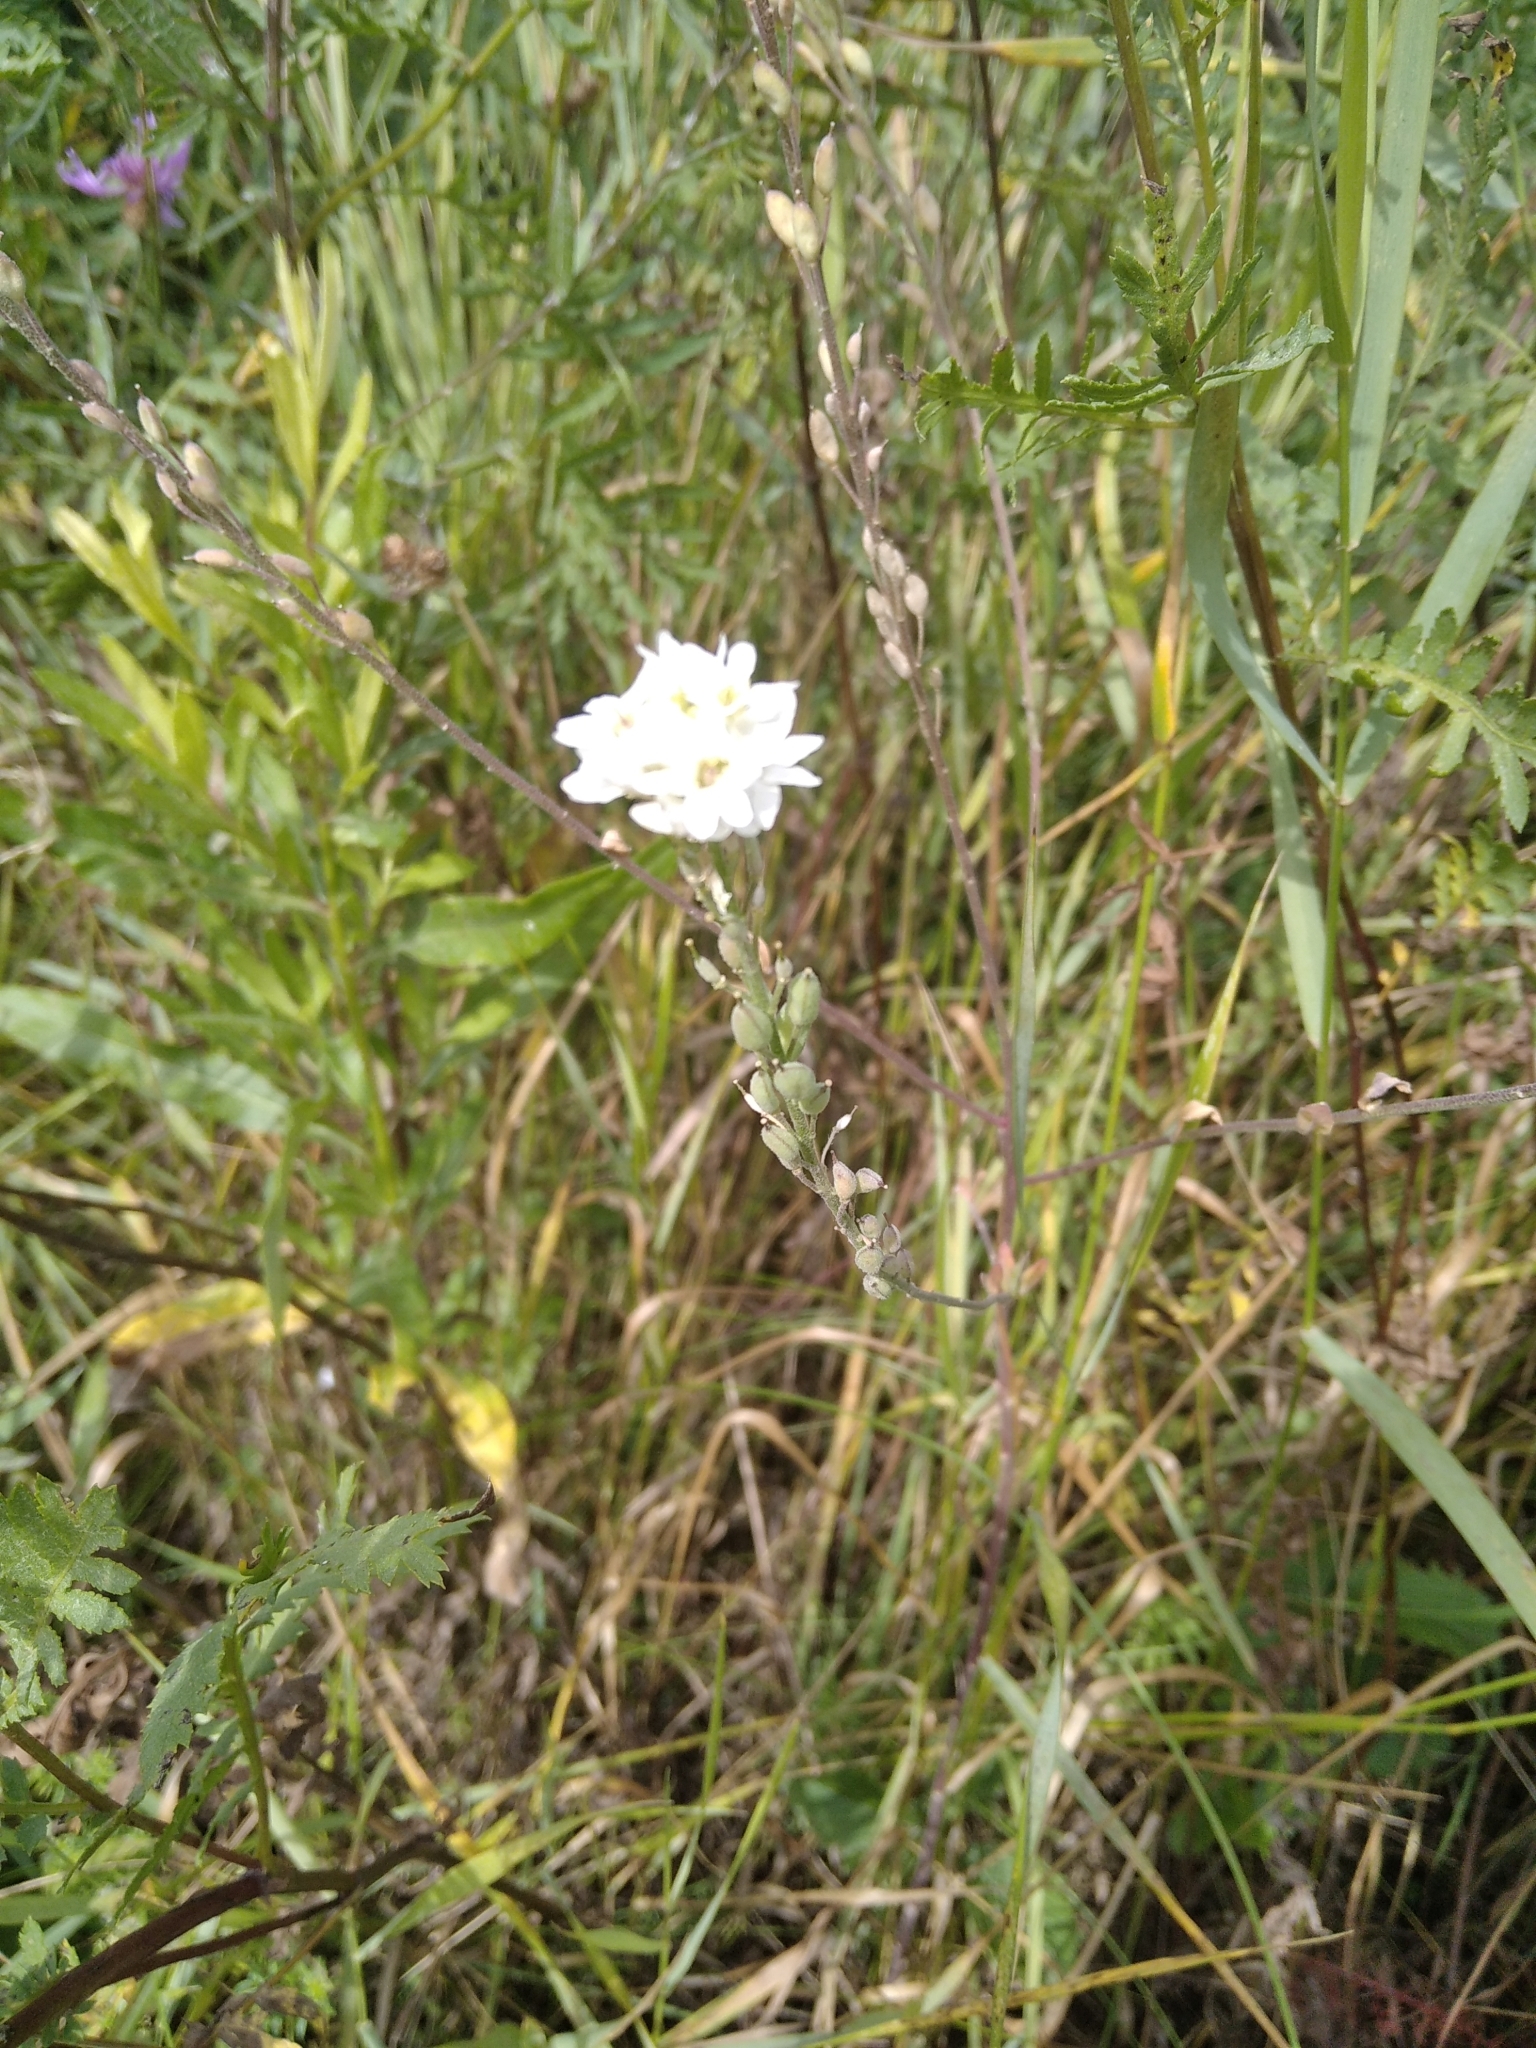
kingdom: Plantae
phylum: Tracheophyta
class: Magnoliopsida
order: Brassicales
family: Brassicaceae
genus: Berteroa
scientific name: Berteroa incana
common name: Hoary alison
